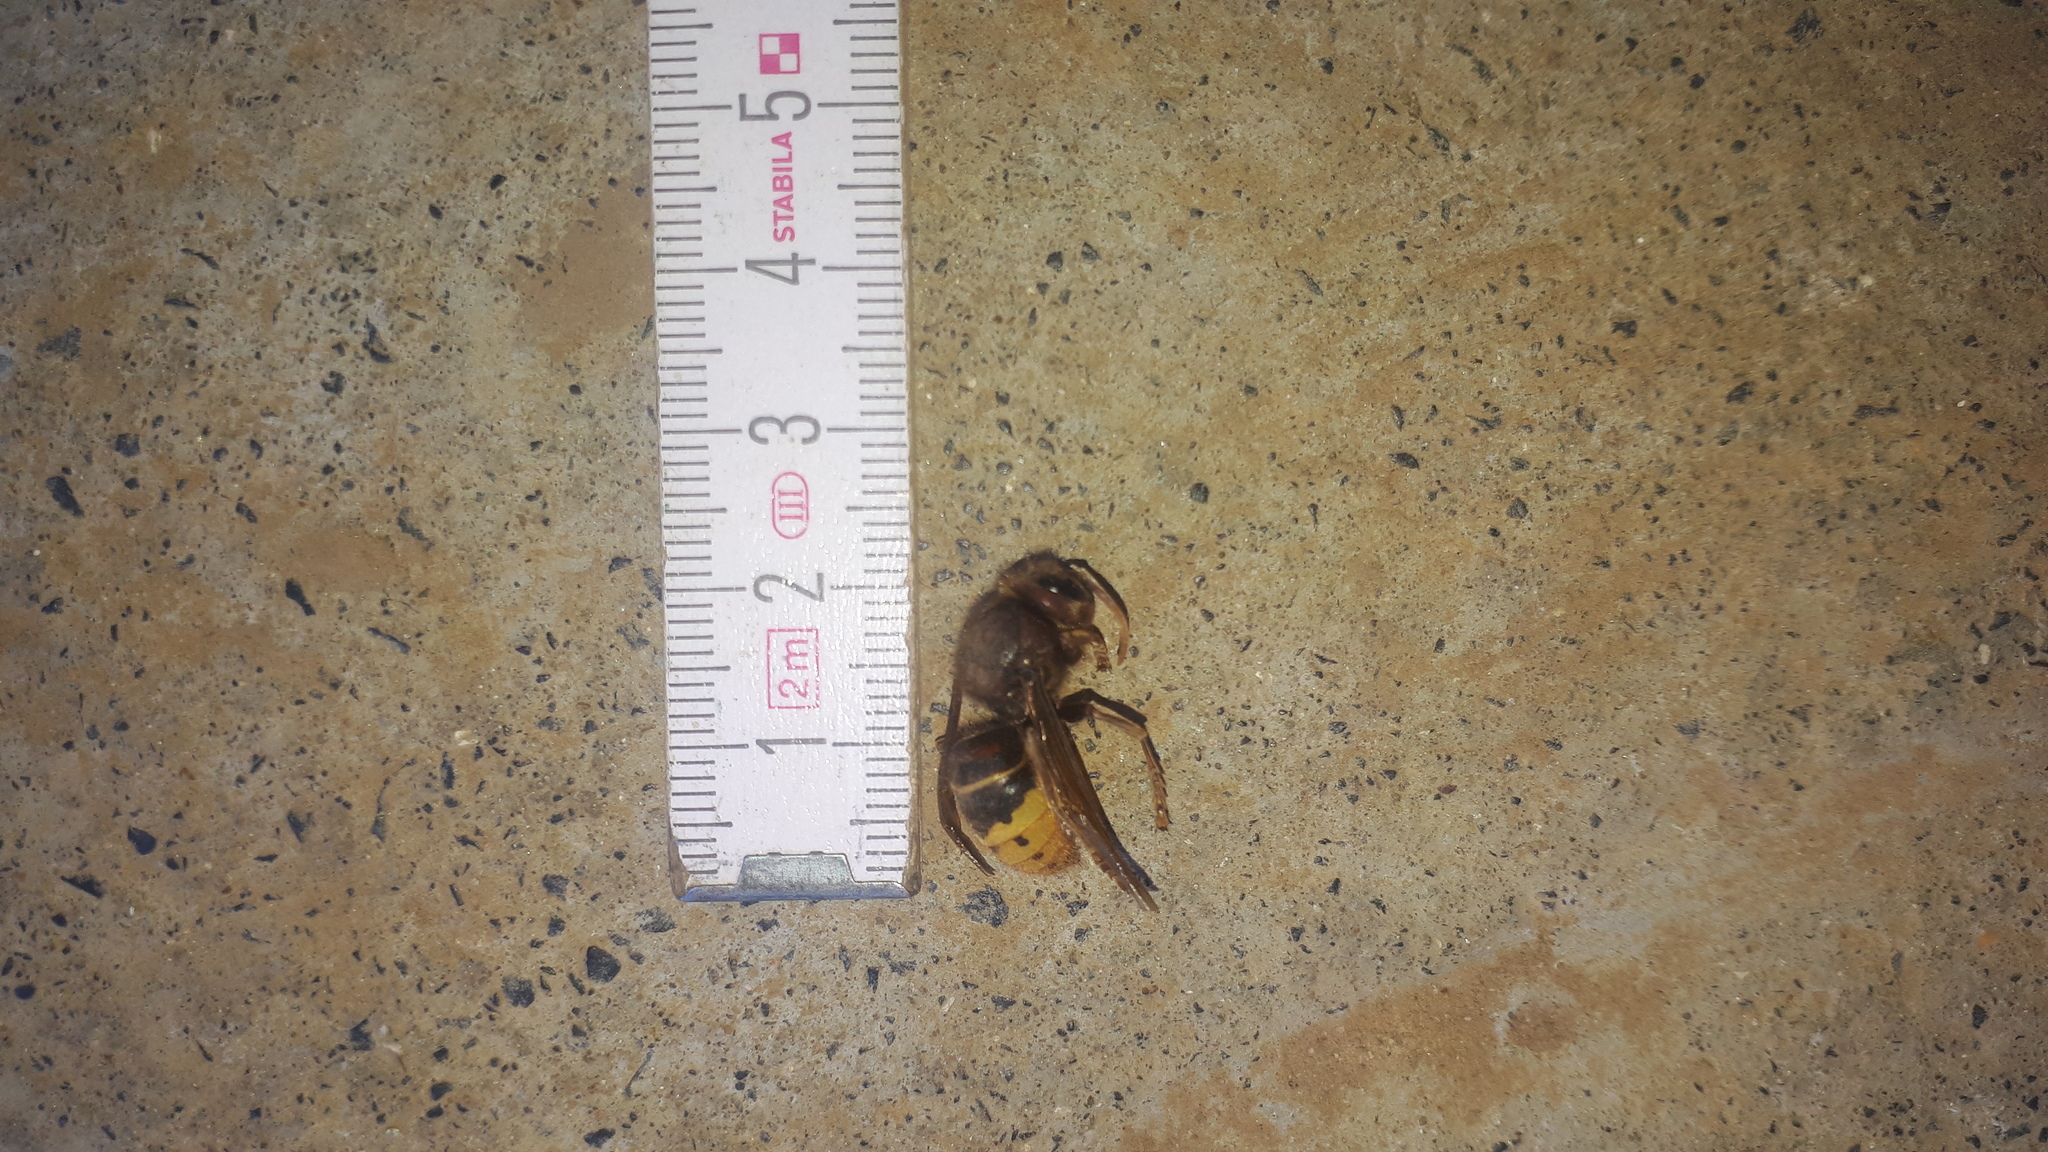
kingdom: Animalia
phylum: Arthropoda
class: Insecta
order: Hymenoptera
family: Vespidae
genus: Vespa
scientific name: Vespa crabro
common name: Hornet
